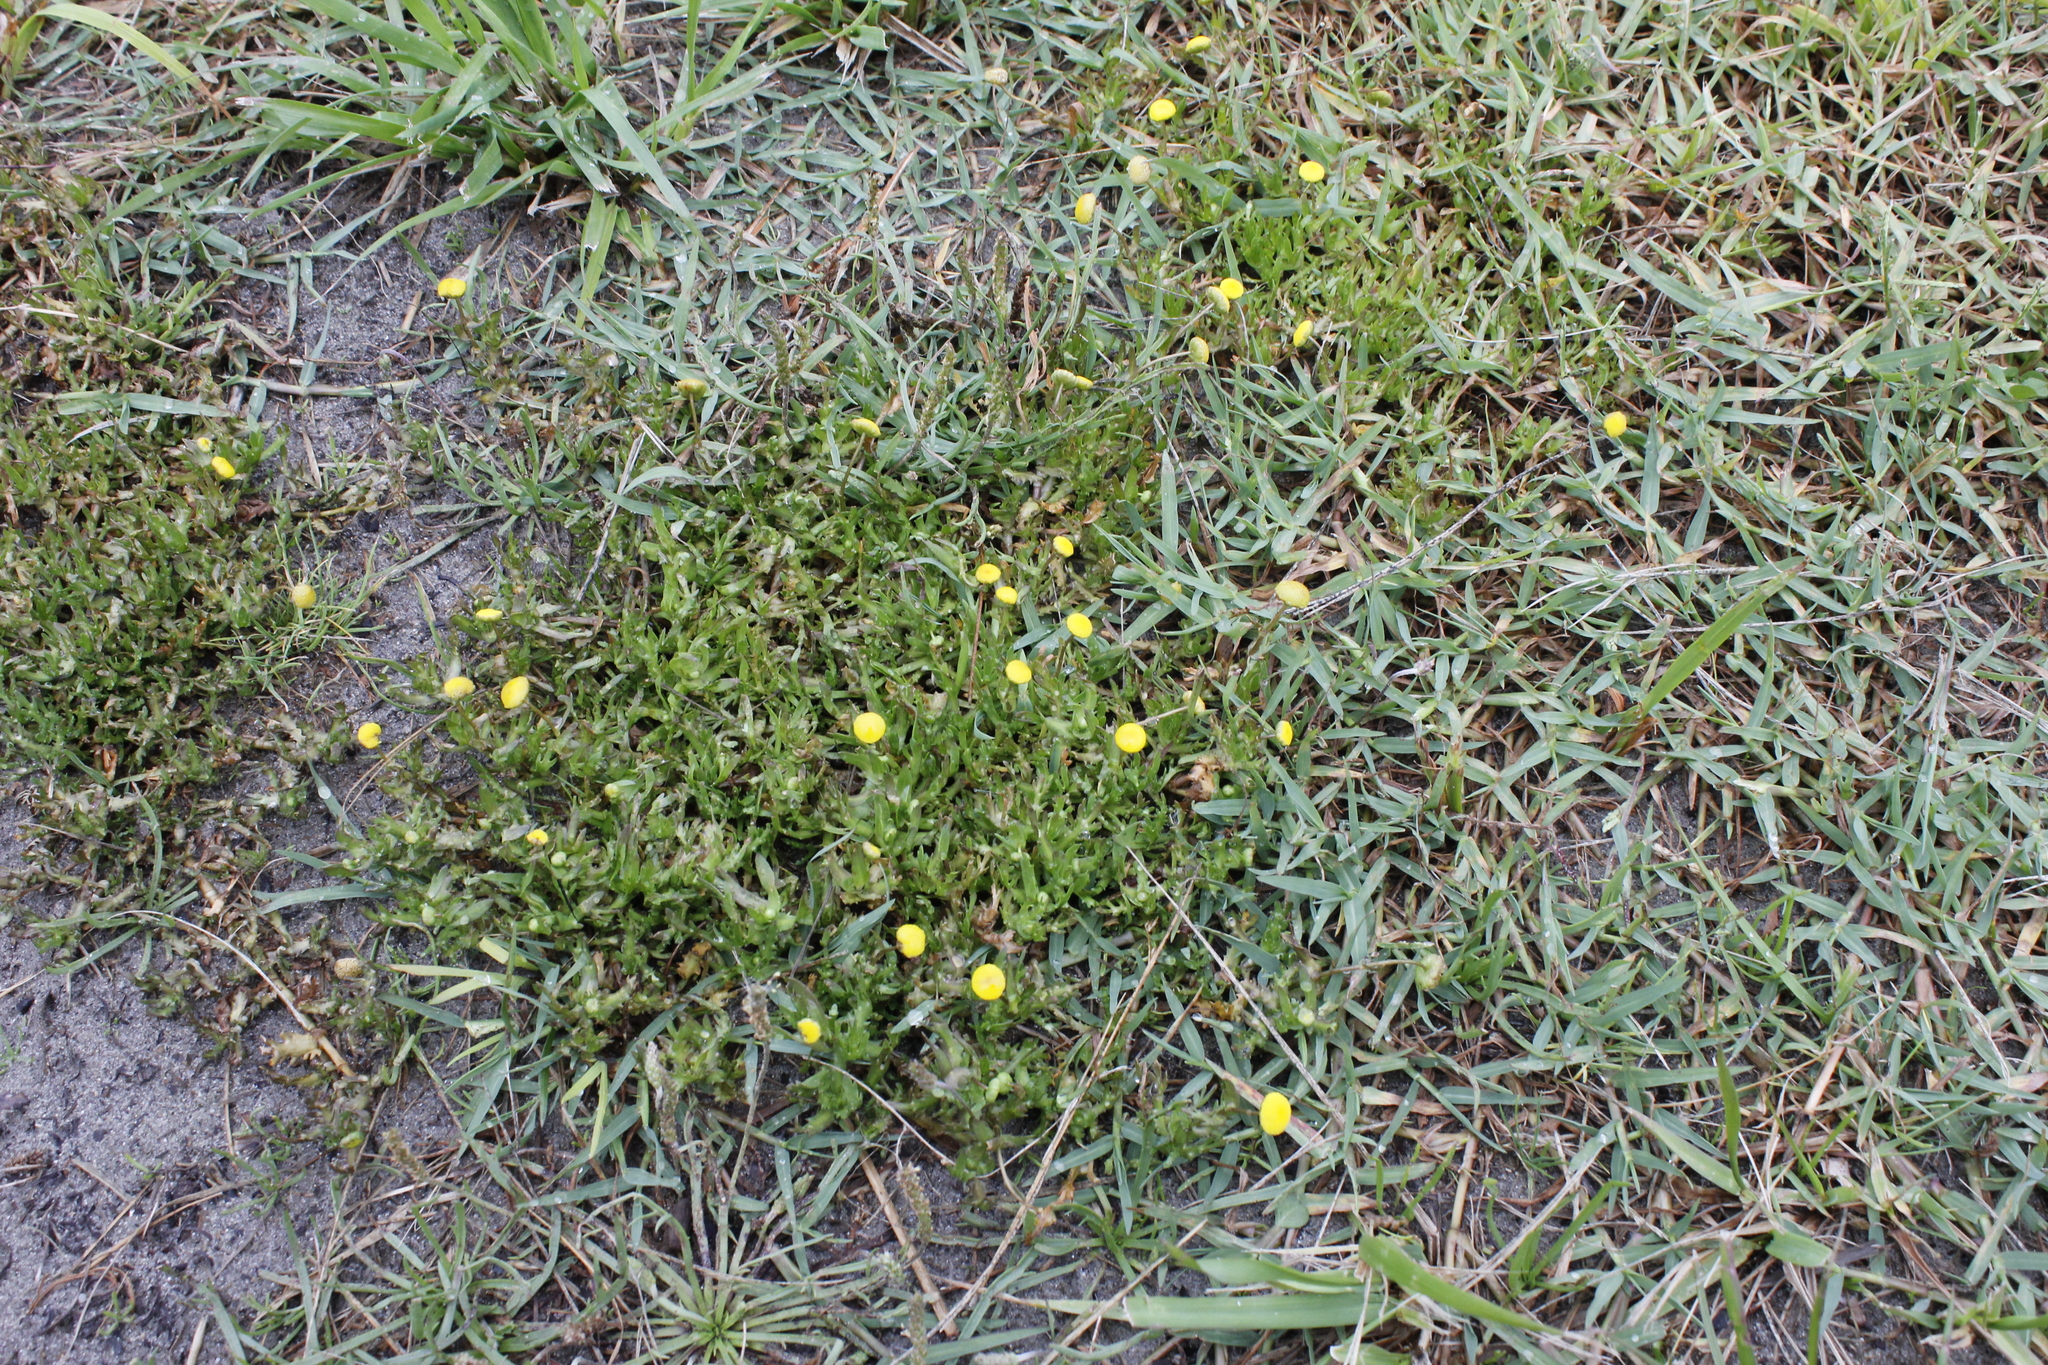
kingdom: Plantae
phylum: Tracheophyta
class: Magnoliopsida
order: Asterales
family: Asteraceae
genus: Cotula
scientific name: Cotula coronopifolia
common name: Buttonweed
